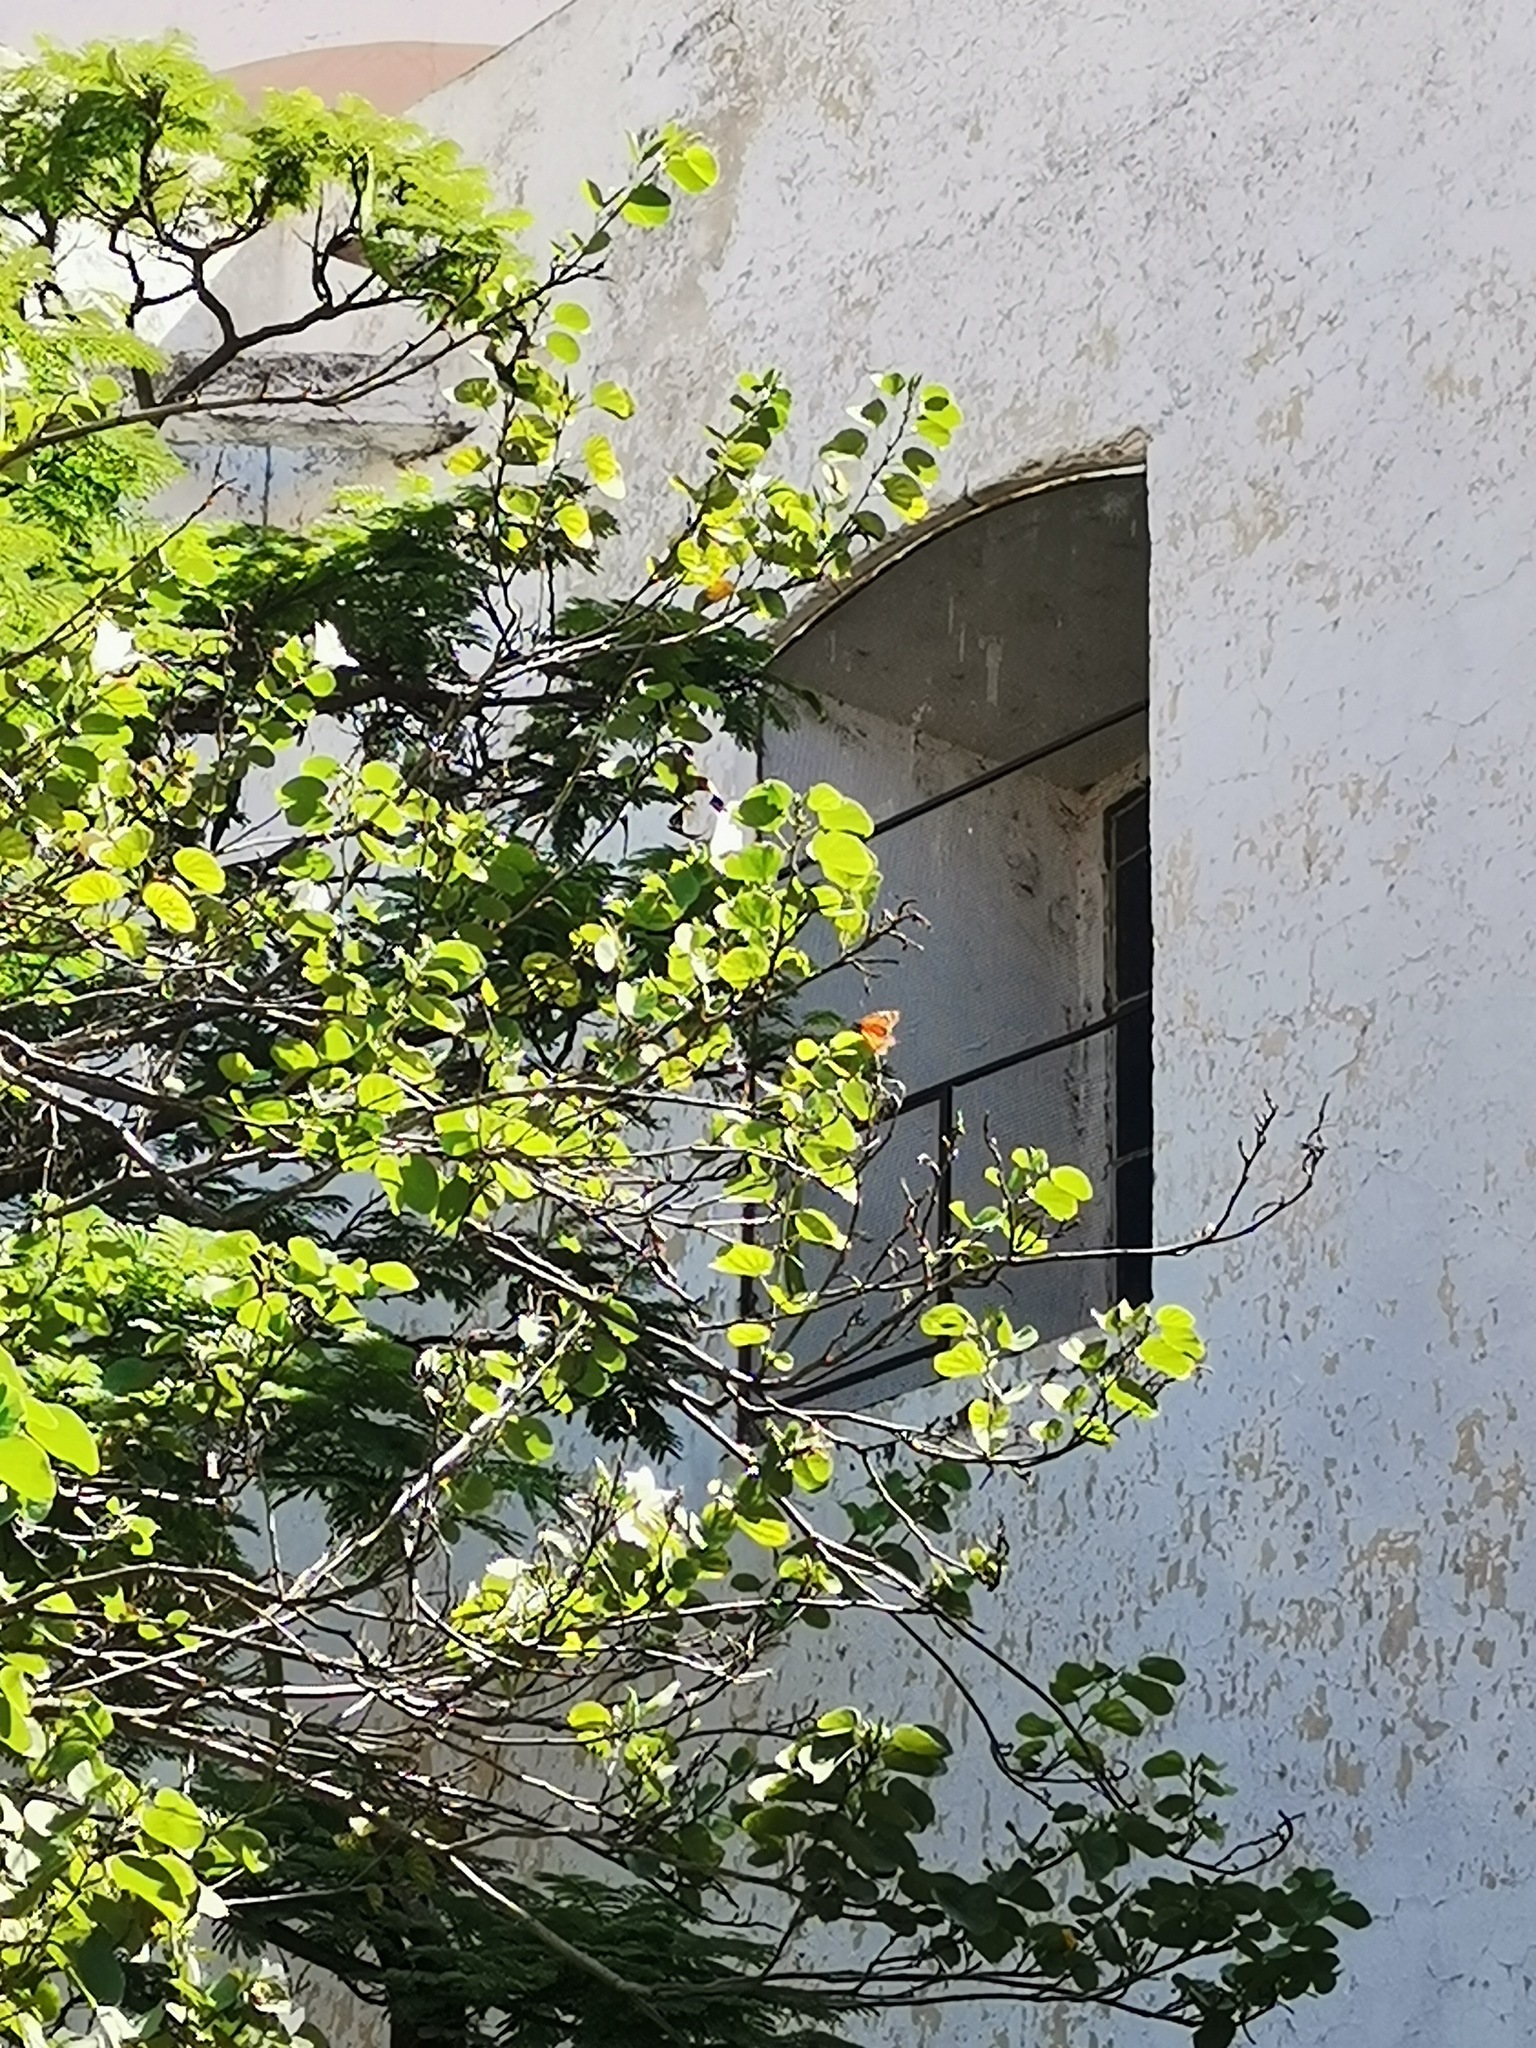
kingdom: Animalia
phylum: Arthropoda
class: Insecta
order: Lepidoptera
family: Nymphalidae
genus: Danaus
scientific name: Danaus plexippus
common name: Monarch
